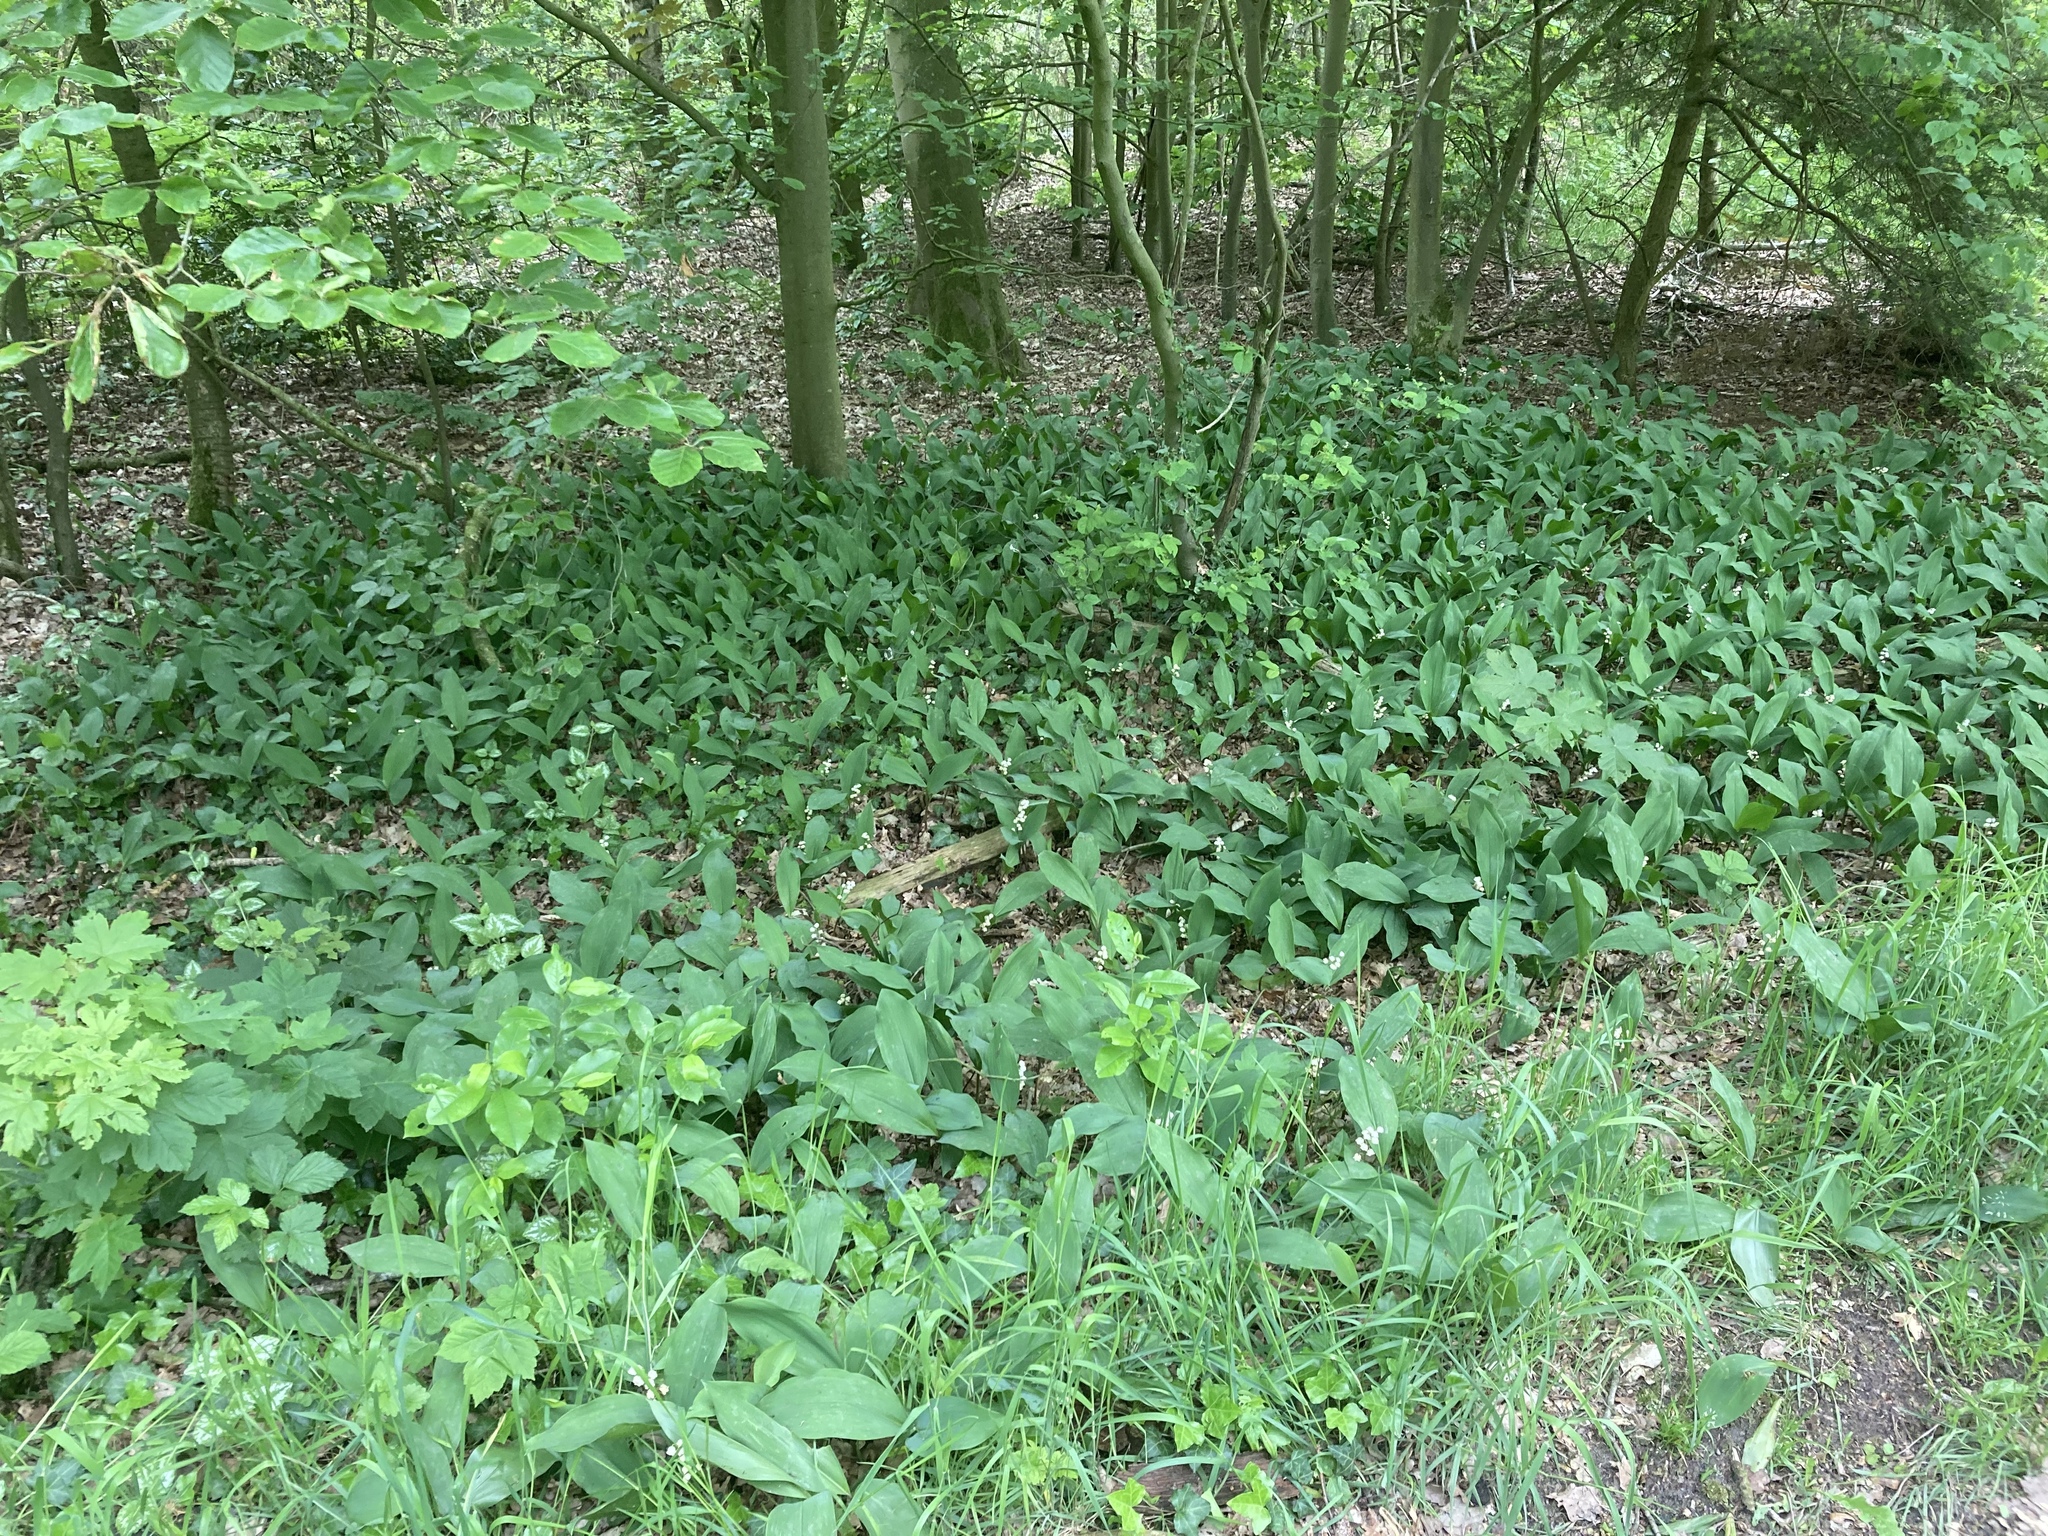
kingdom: Plantae
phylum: Tracheophyta
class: Liliopsida
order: Asparagales
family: Asparagaceae
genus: Convallaria
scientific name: Convallaria majalis
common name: Lily-of-the-valley
